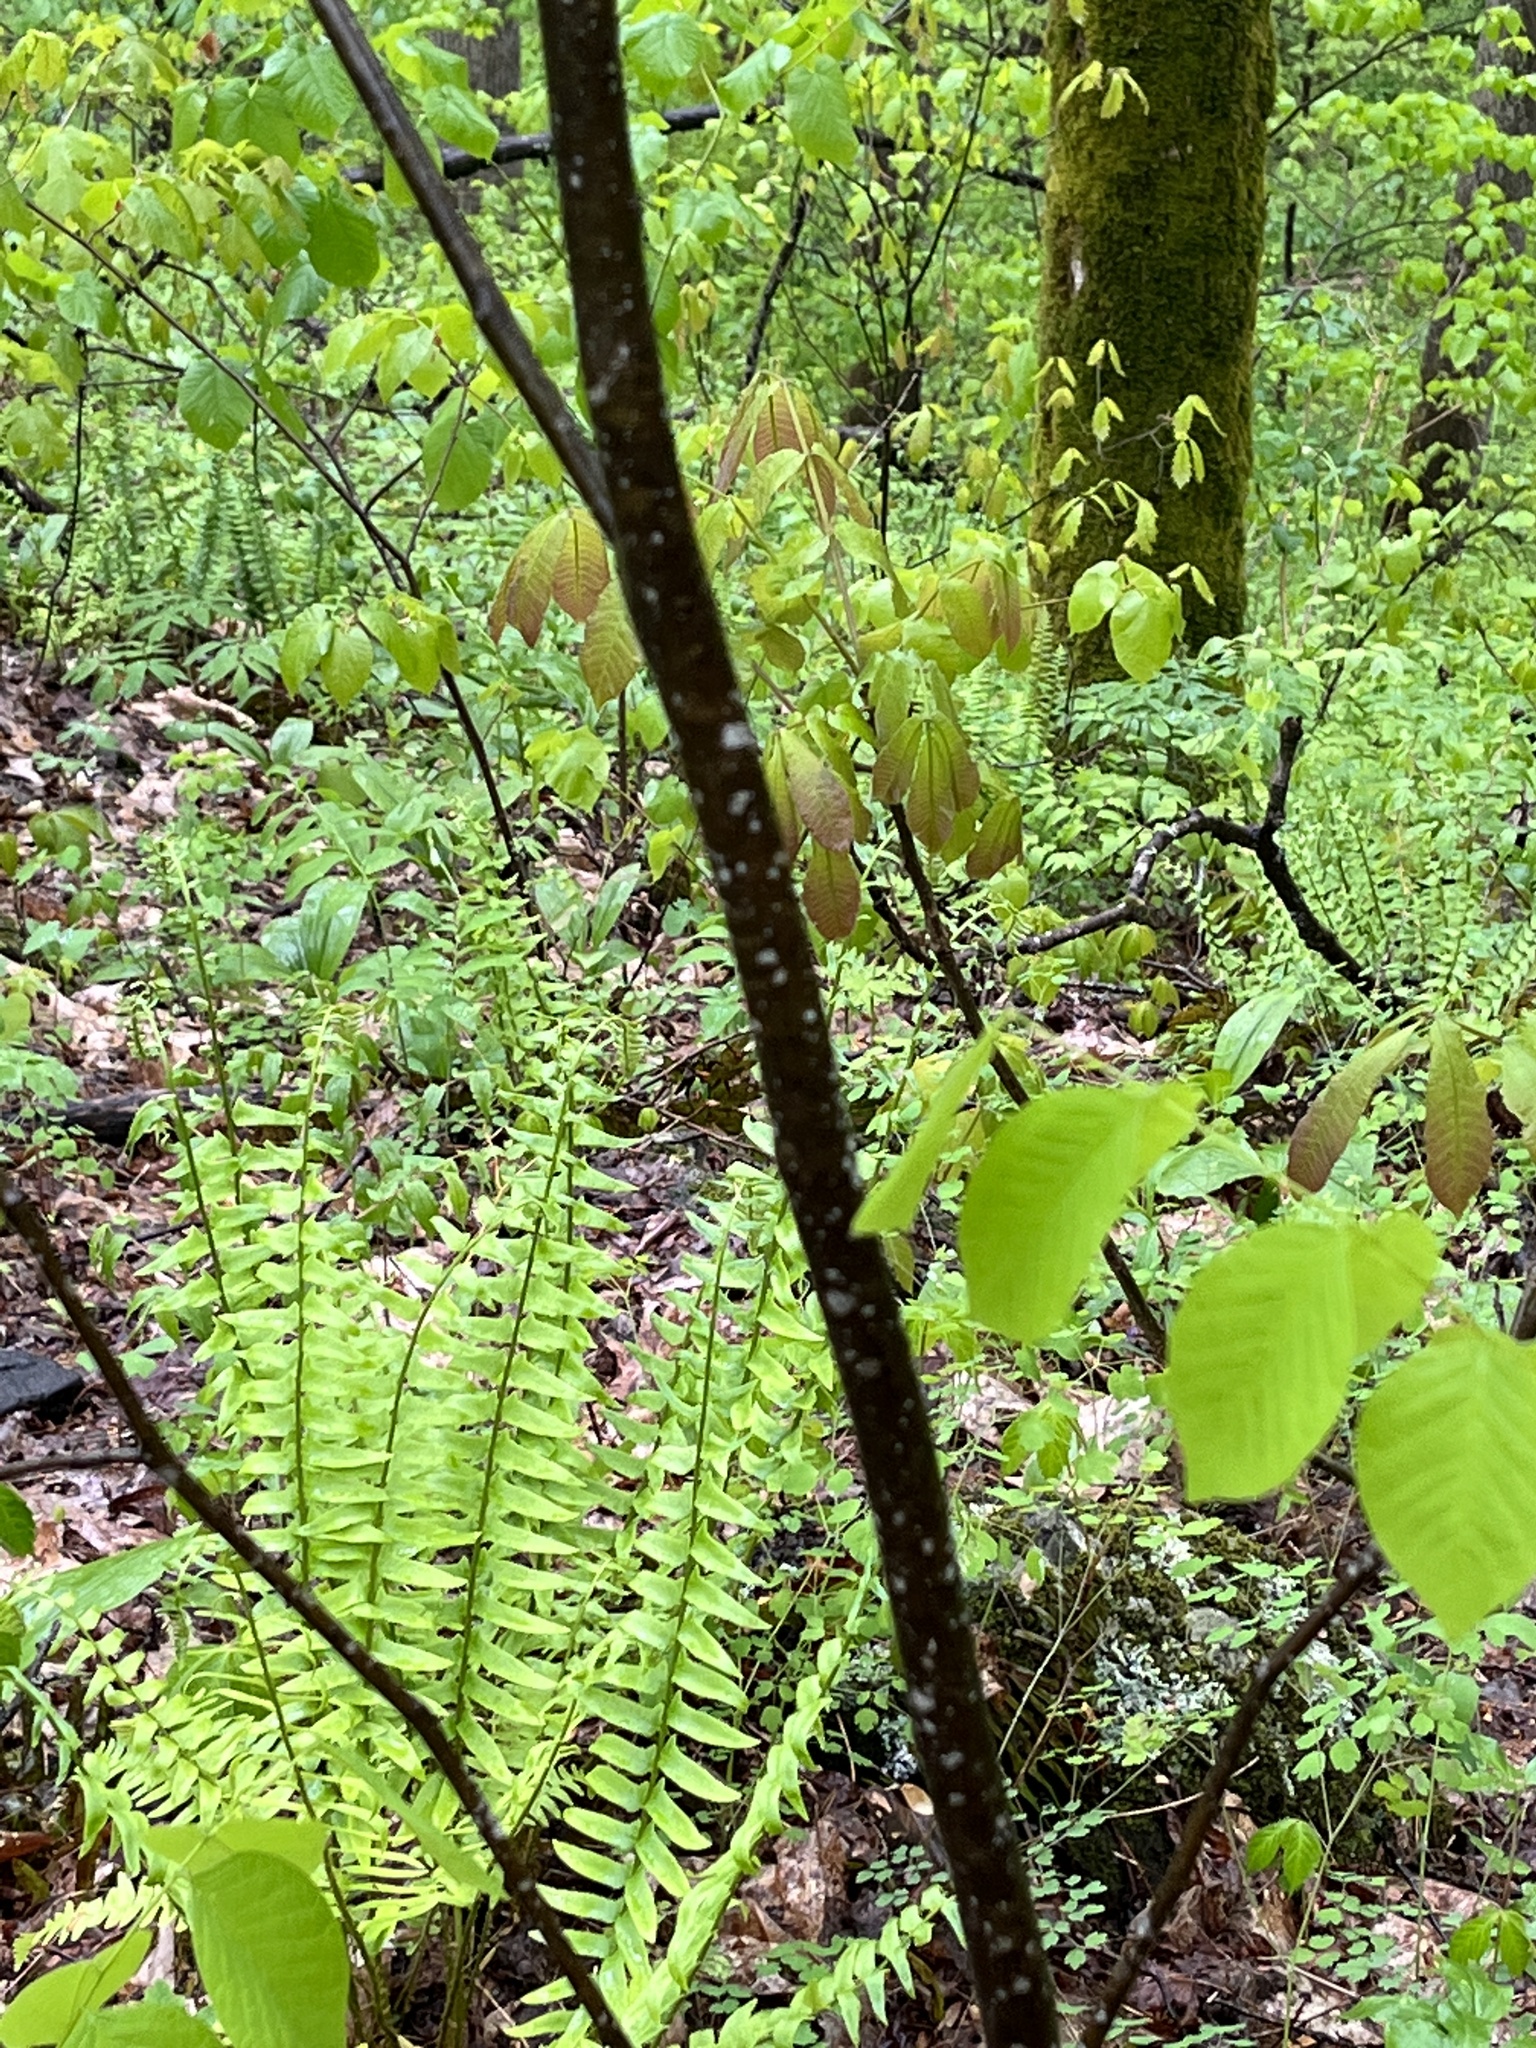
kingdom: Plantae
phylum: Tracheophyta
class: Magnoliopsida
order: Fabales
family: Fabaceae
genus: Cladrastis
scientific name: Cladrastis kentukea
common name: Kentucky yellow-wood
